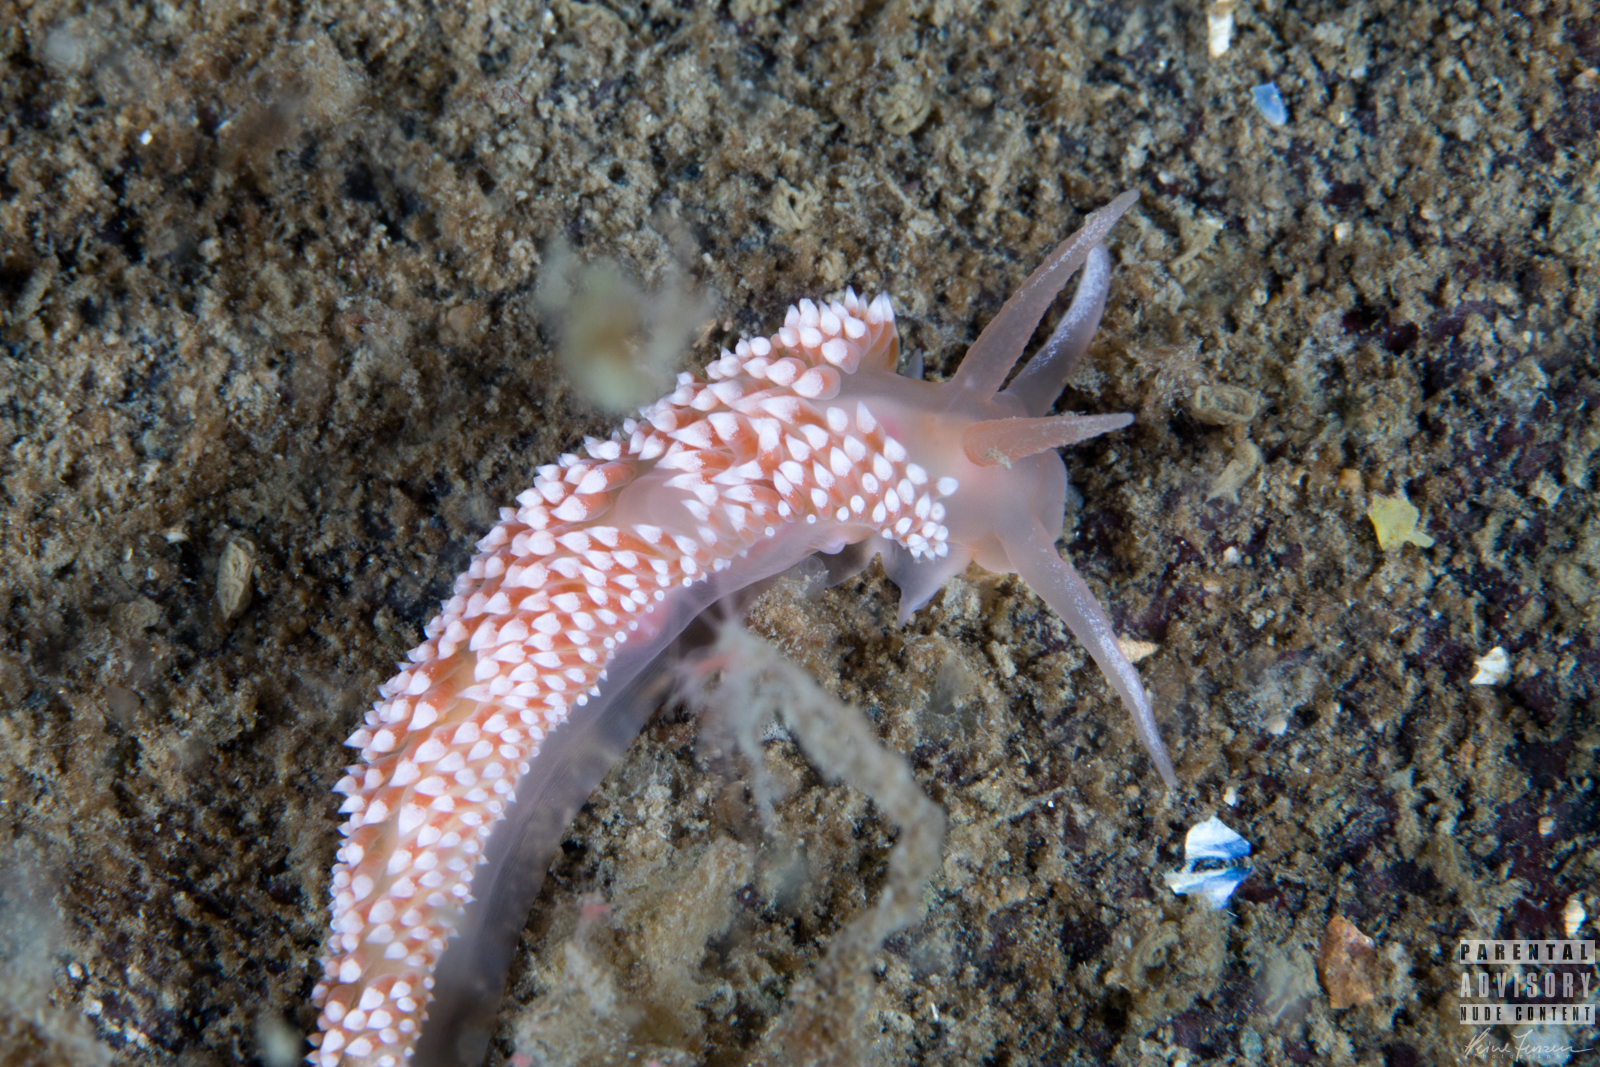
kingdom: Animalia
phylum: Mollusca
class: Gastropoda
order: Nudibranchia
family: Coryphellidae
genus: Coryphella
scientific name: Coryphella verrucosa
